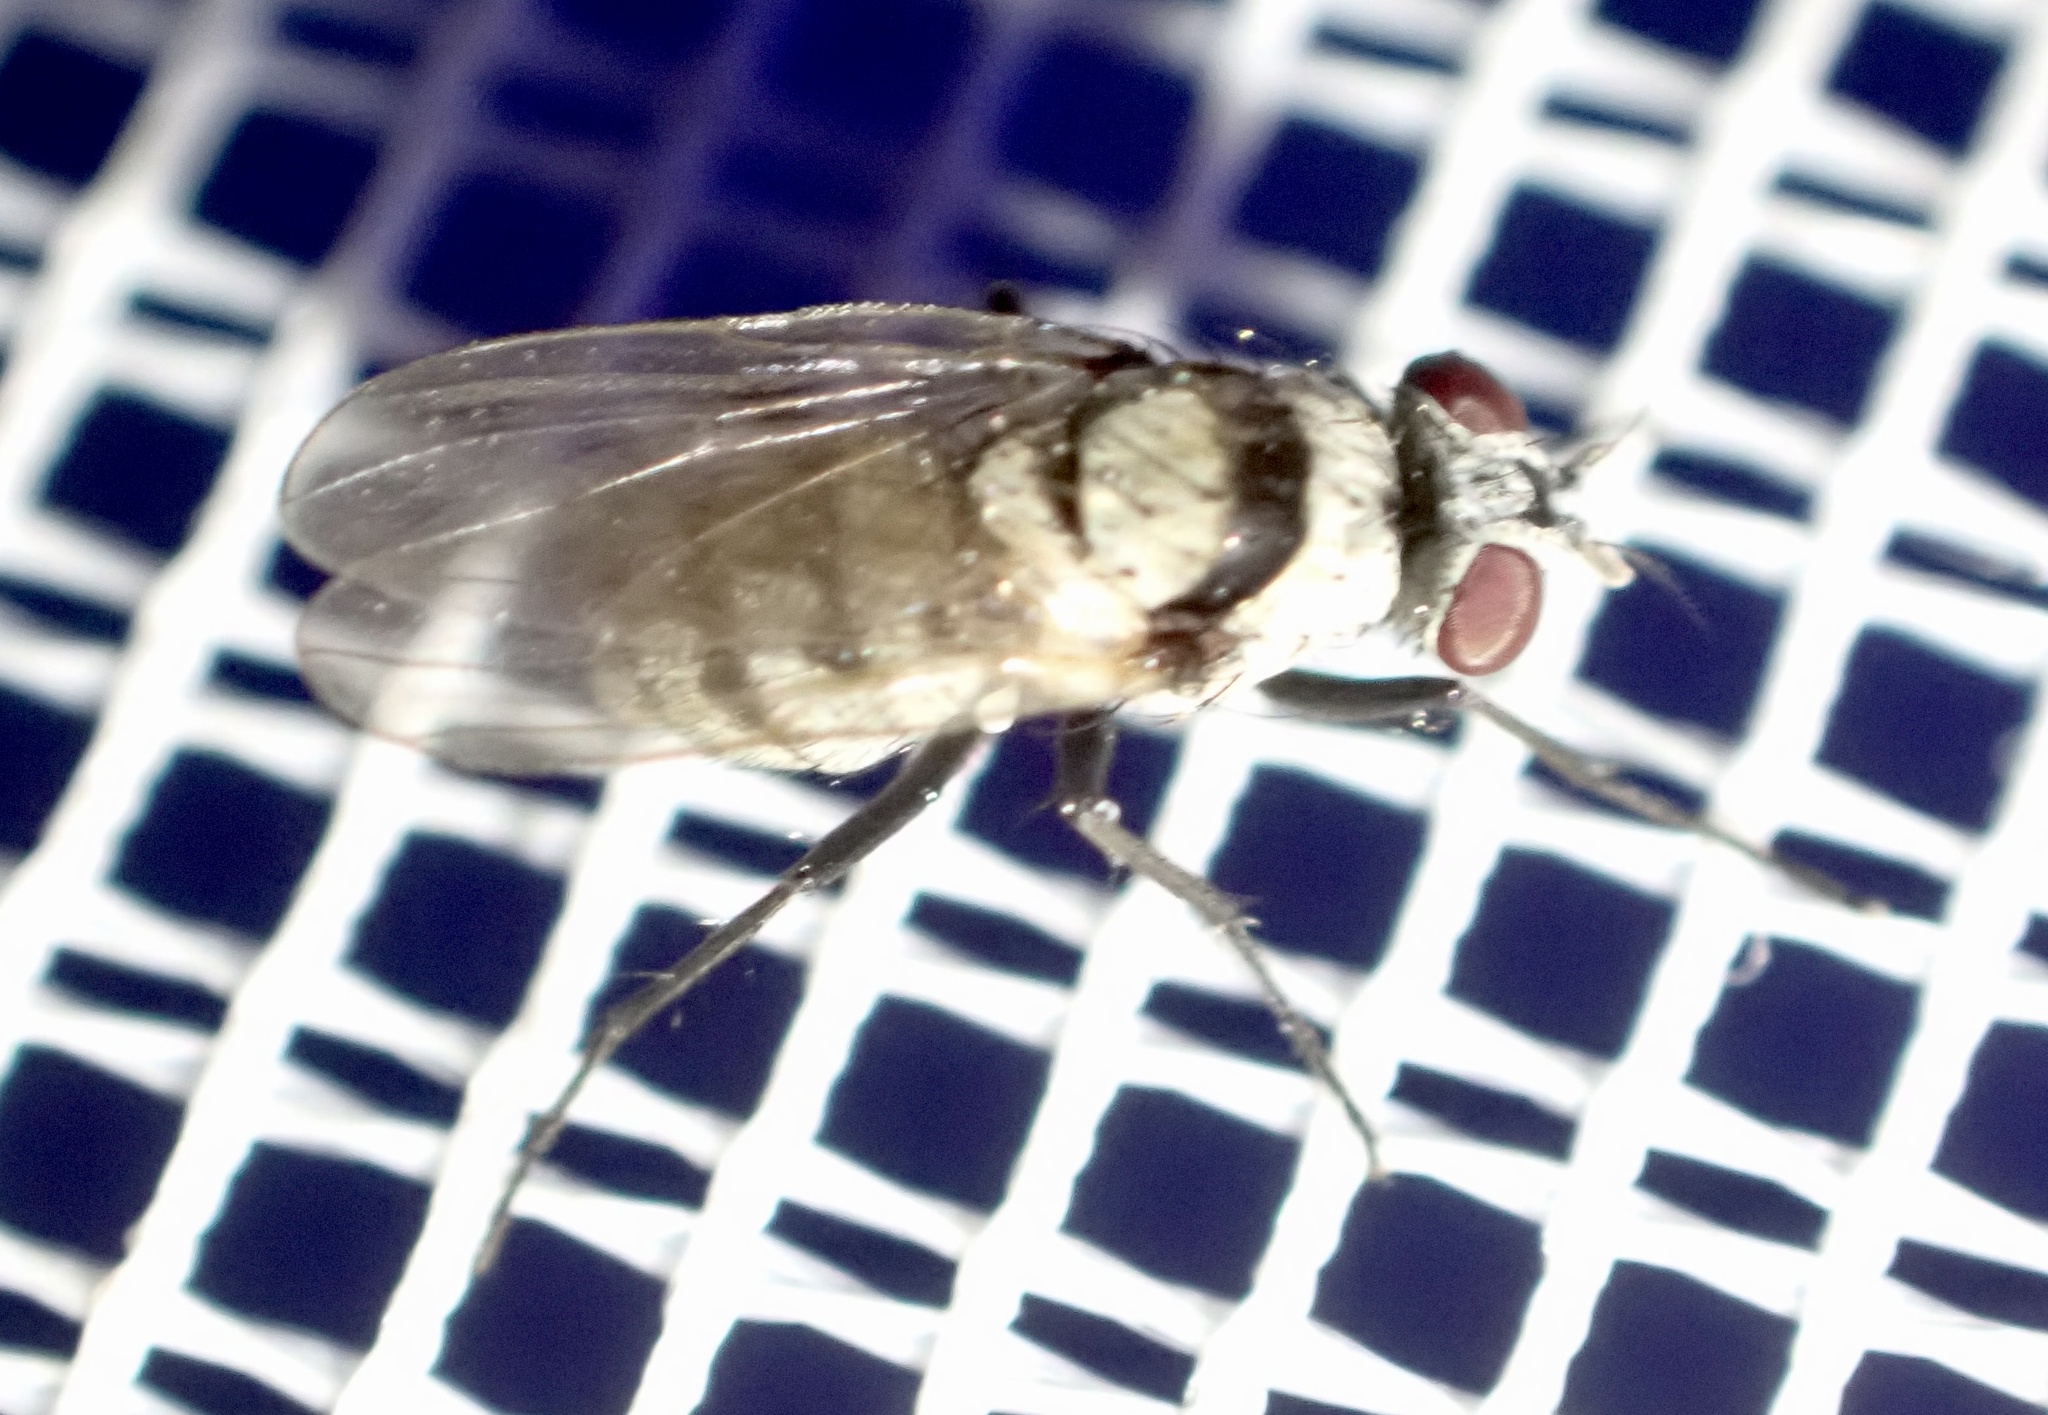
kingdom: Animalia
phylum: Arthropoda
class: Insecta
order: Diptera
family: Anthomyiidae
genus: Anthomyia
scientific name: Anthomyia silvestris
